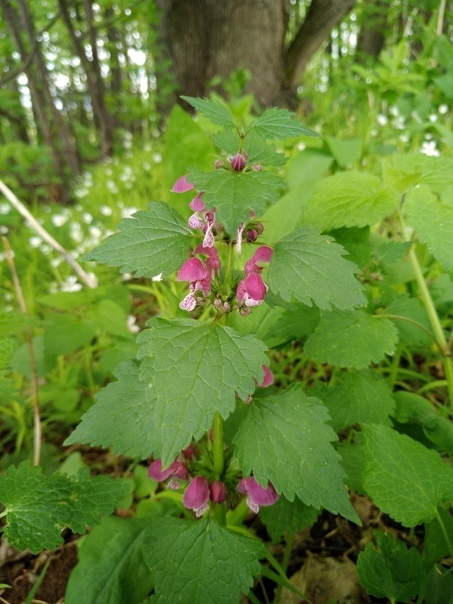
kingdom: Plantae
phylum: Tracheophyta
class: Magnoliopsida
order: Lamiales
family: Lamiaceae
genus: Lamium
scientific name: Lamium maculatum
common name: Spotted dead-nettle
